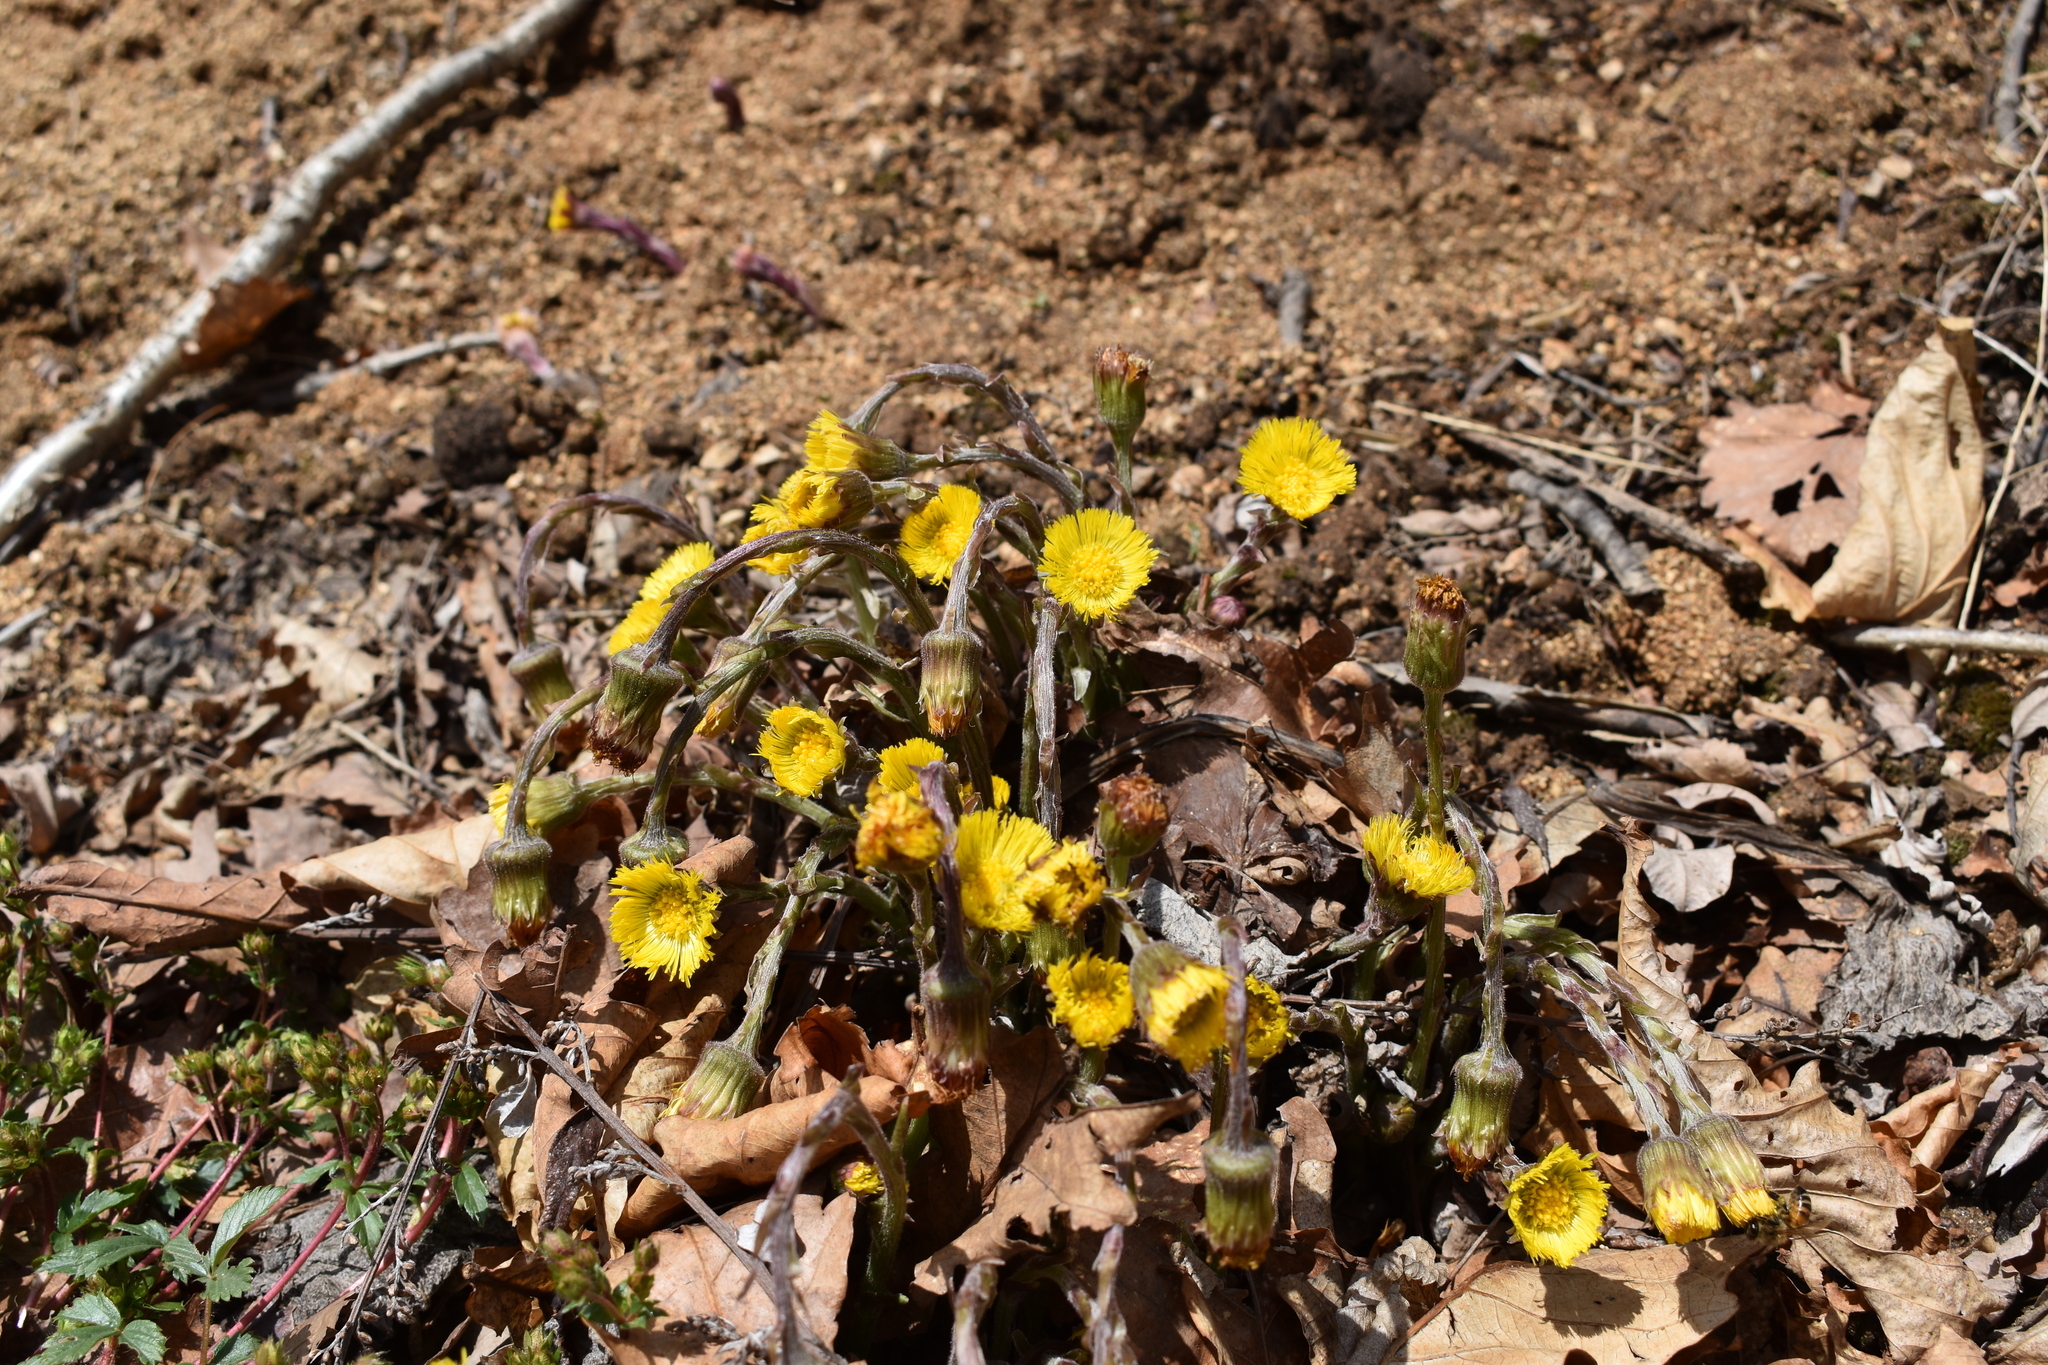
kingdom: Plantae
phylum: Tracheophyta
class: Magnoliopsida
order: Asterales
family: Asteraceae
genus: Tussilago
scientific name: Tussilago farfara
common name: Coltsfoot
